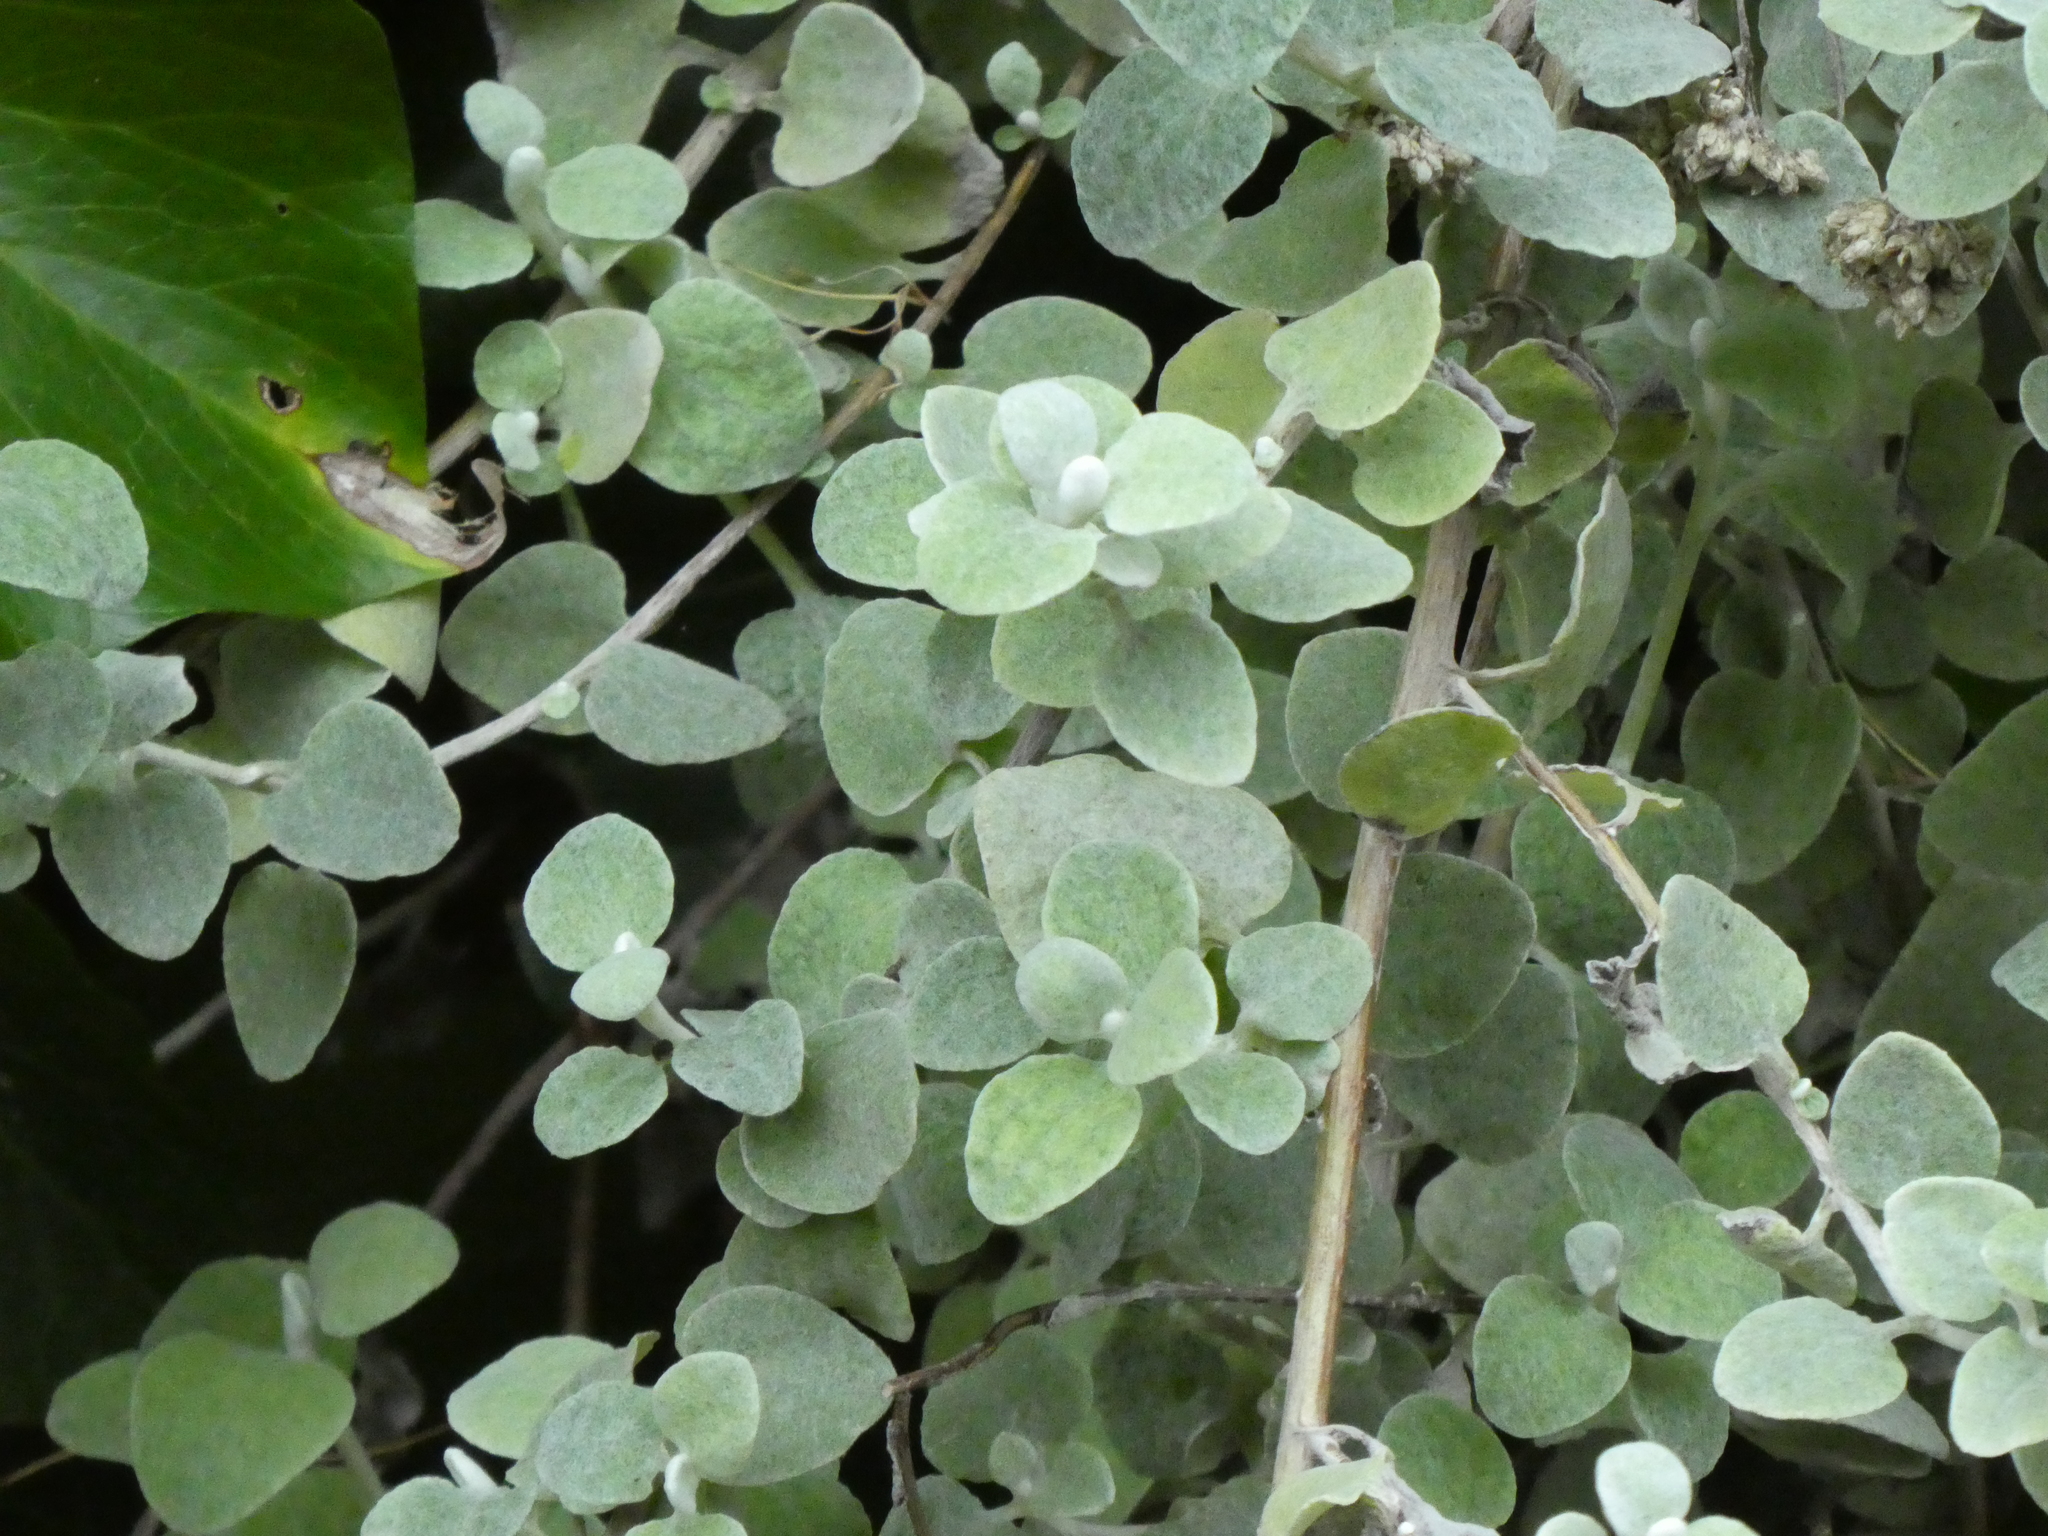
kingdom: Plantae
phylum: Tracheophyta
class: Magnoliopsida
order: Asterales
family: Asteraceae
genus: Helichrysum
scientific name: Helichrysum petiolare
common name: Licorice-plant
